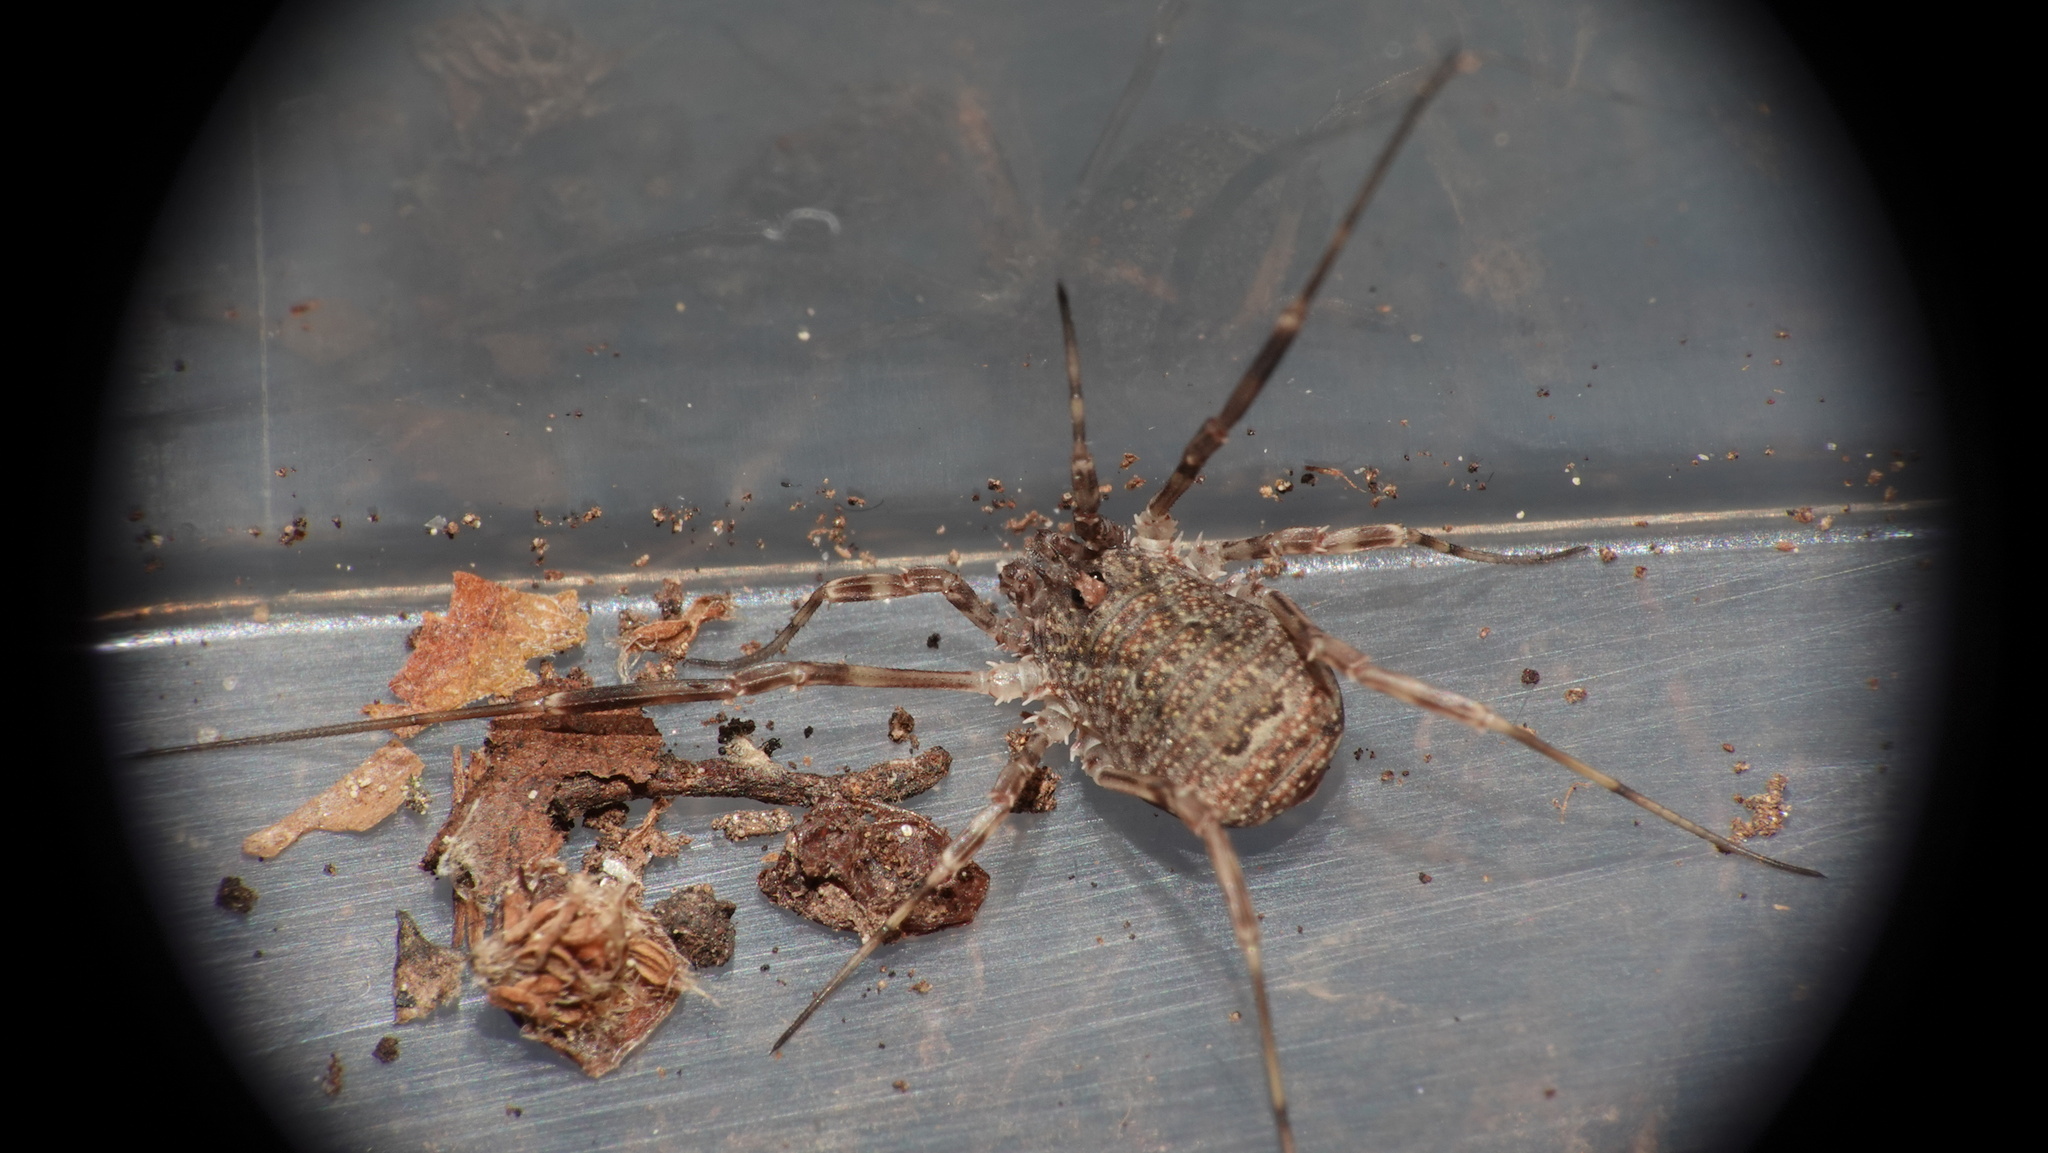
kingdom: Animalia
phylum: Arthropoda
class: Arachnida
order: Opiliones
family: Phalangiidae
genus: Odiellus
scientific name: Odiellus granulatus
